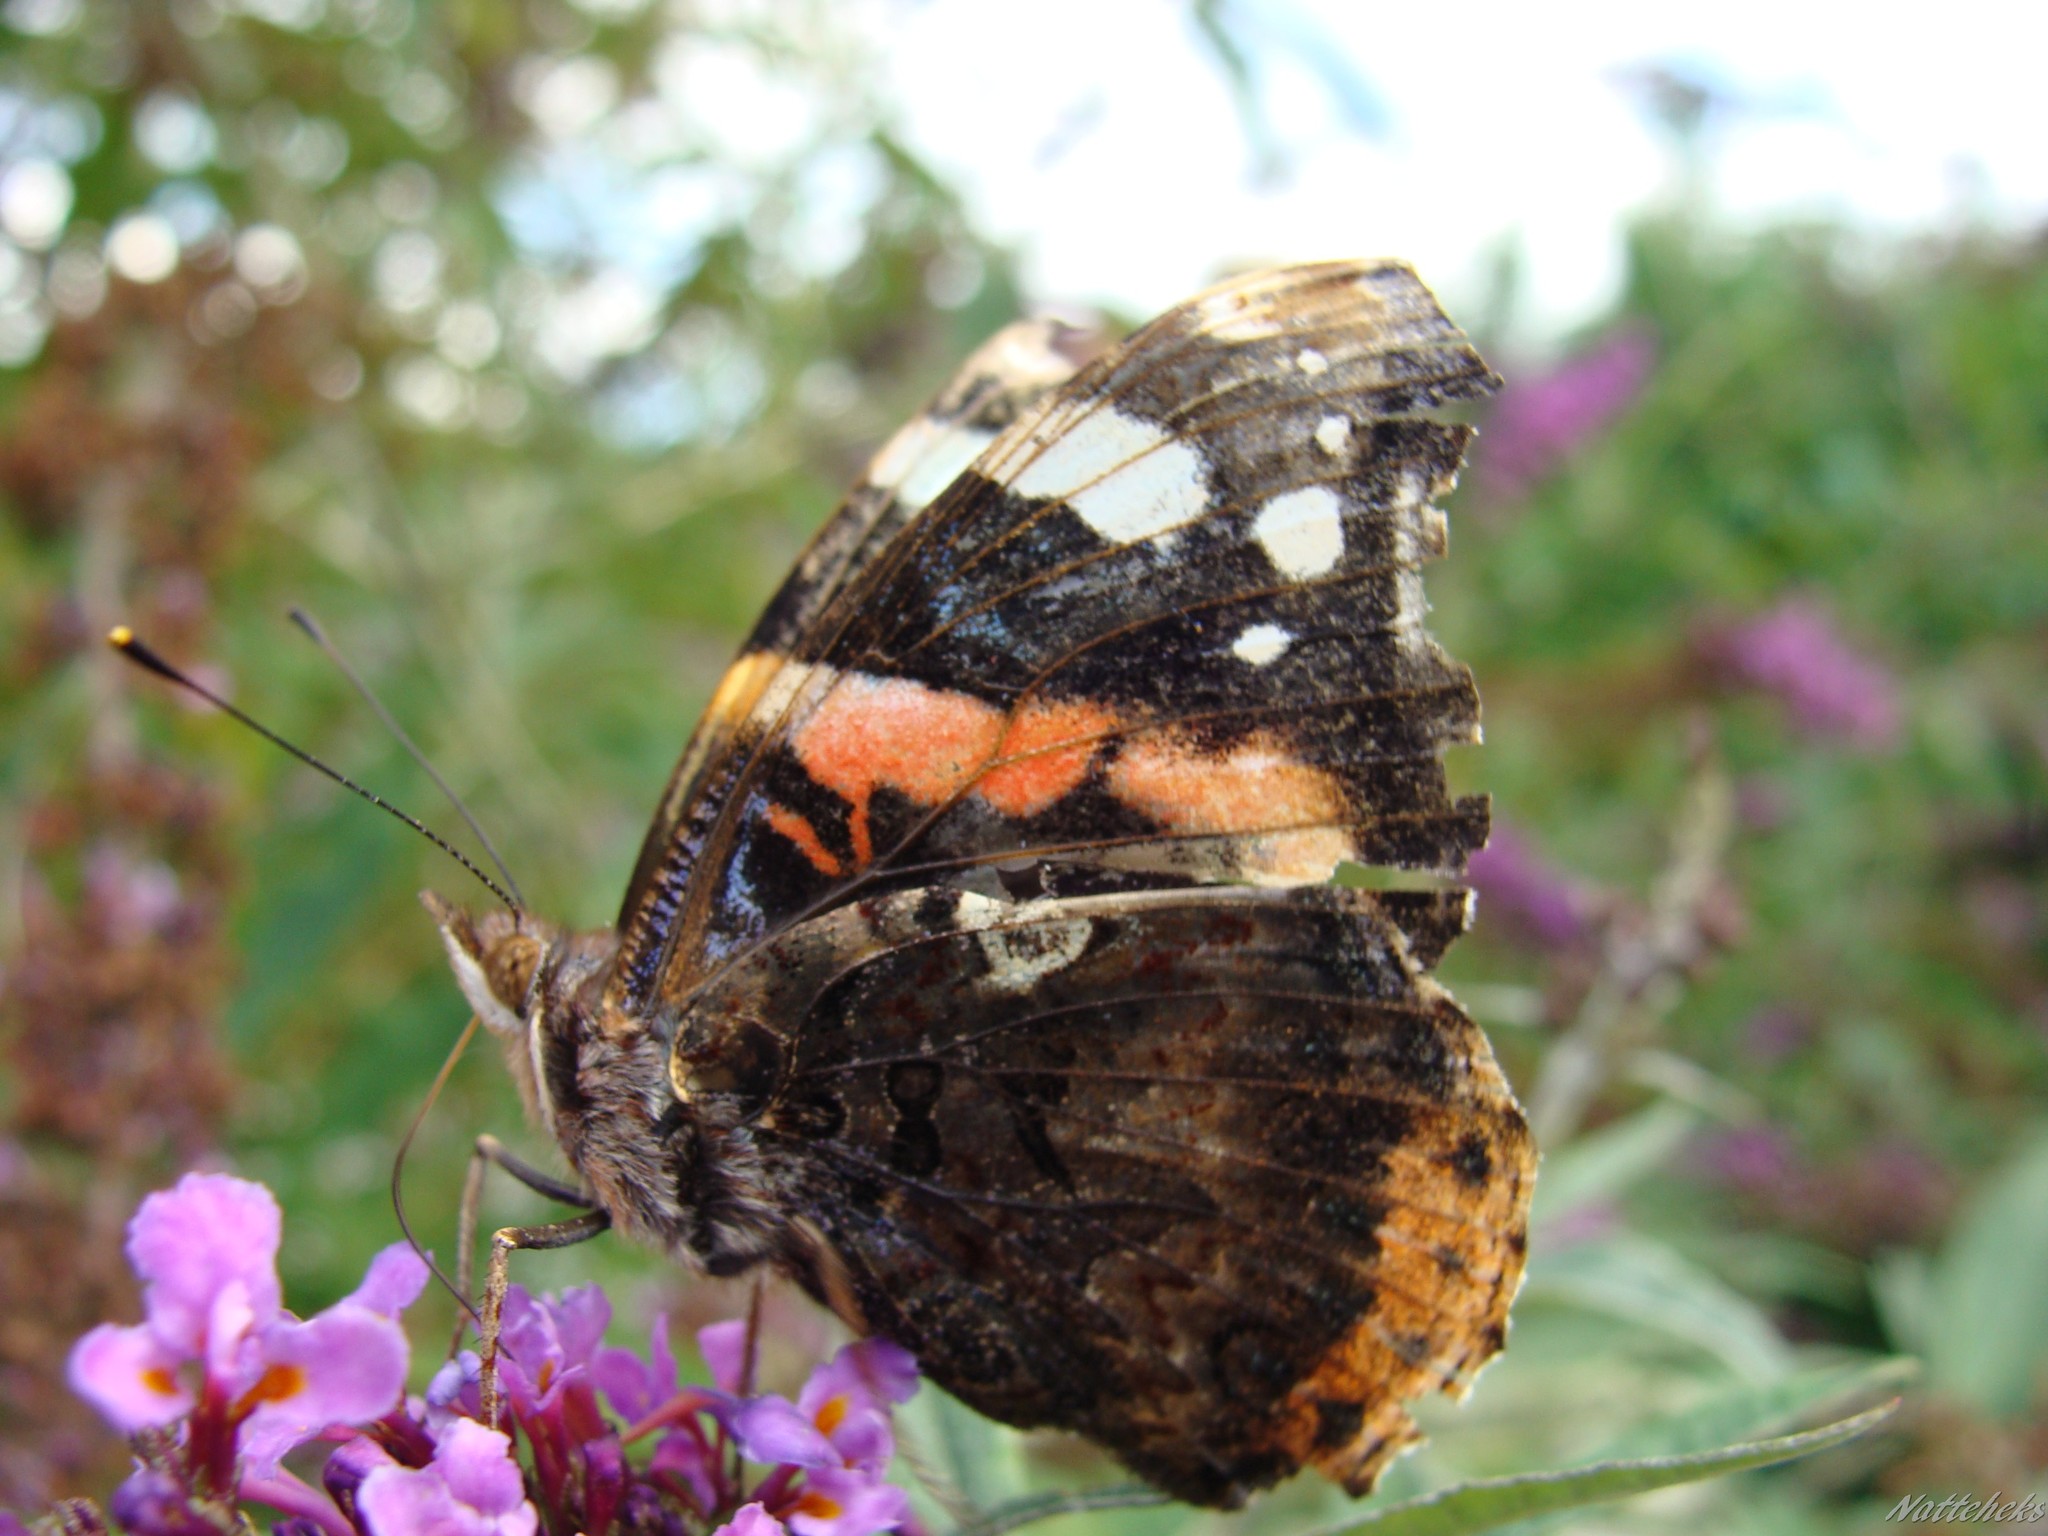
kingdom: Animalia
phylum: Arthropoda
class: Insecta
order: Lepidoptera
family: Nymphalidae
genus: Vanessa
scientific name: Vanessa atalanta
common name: Red admiral
